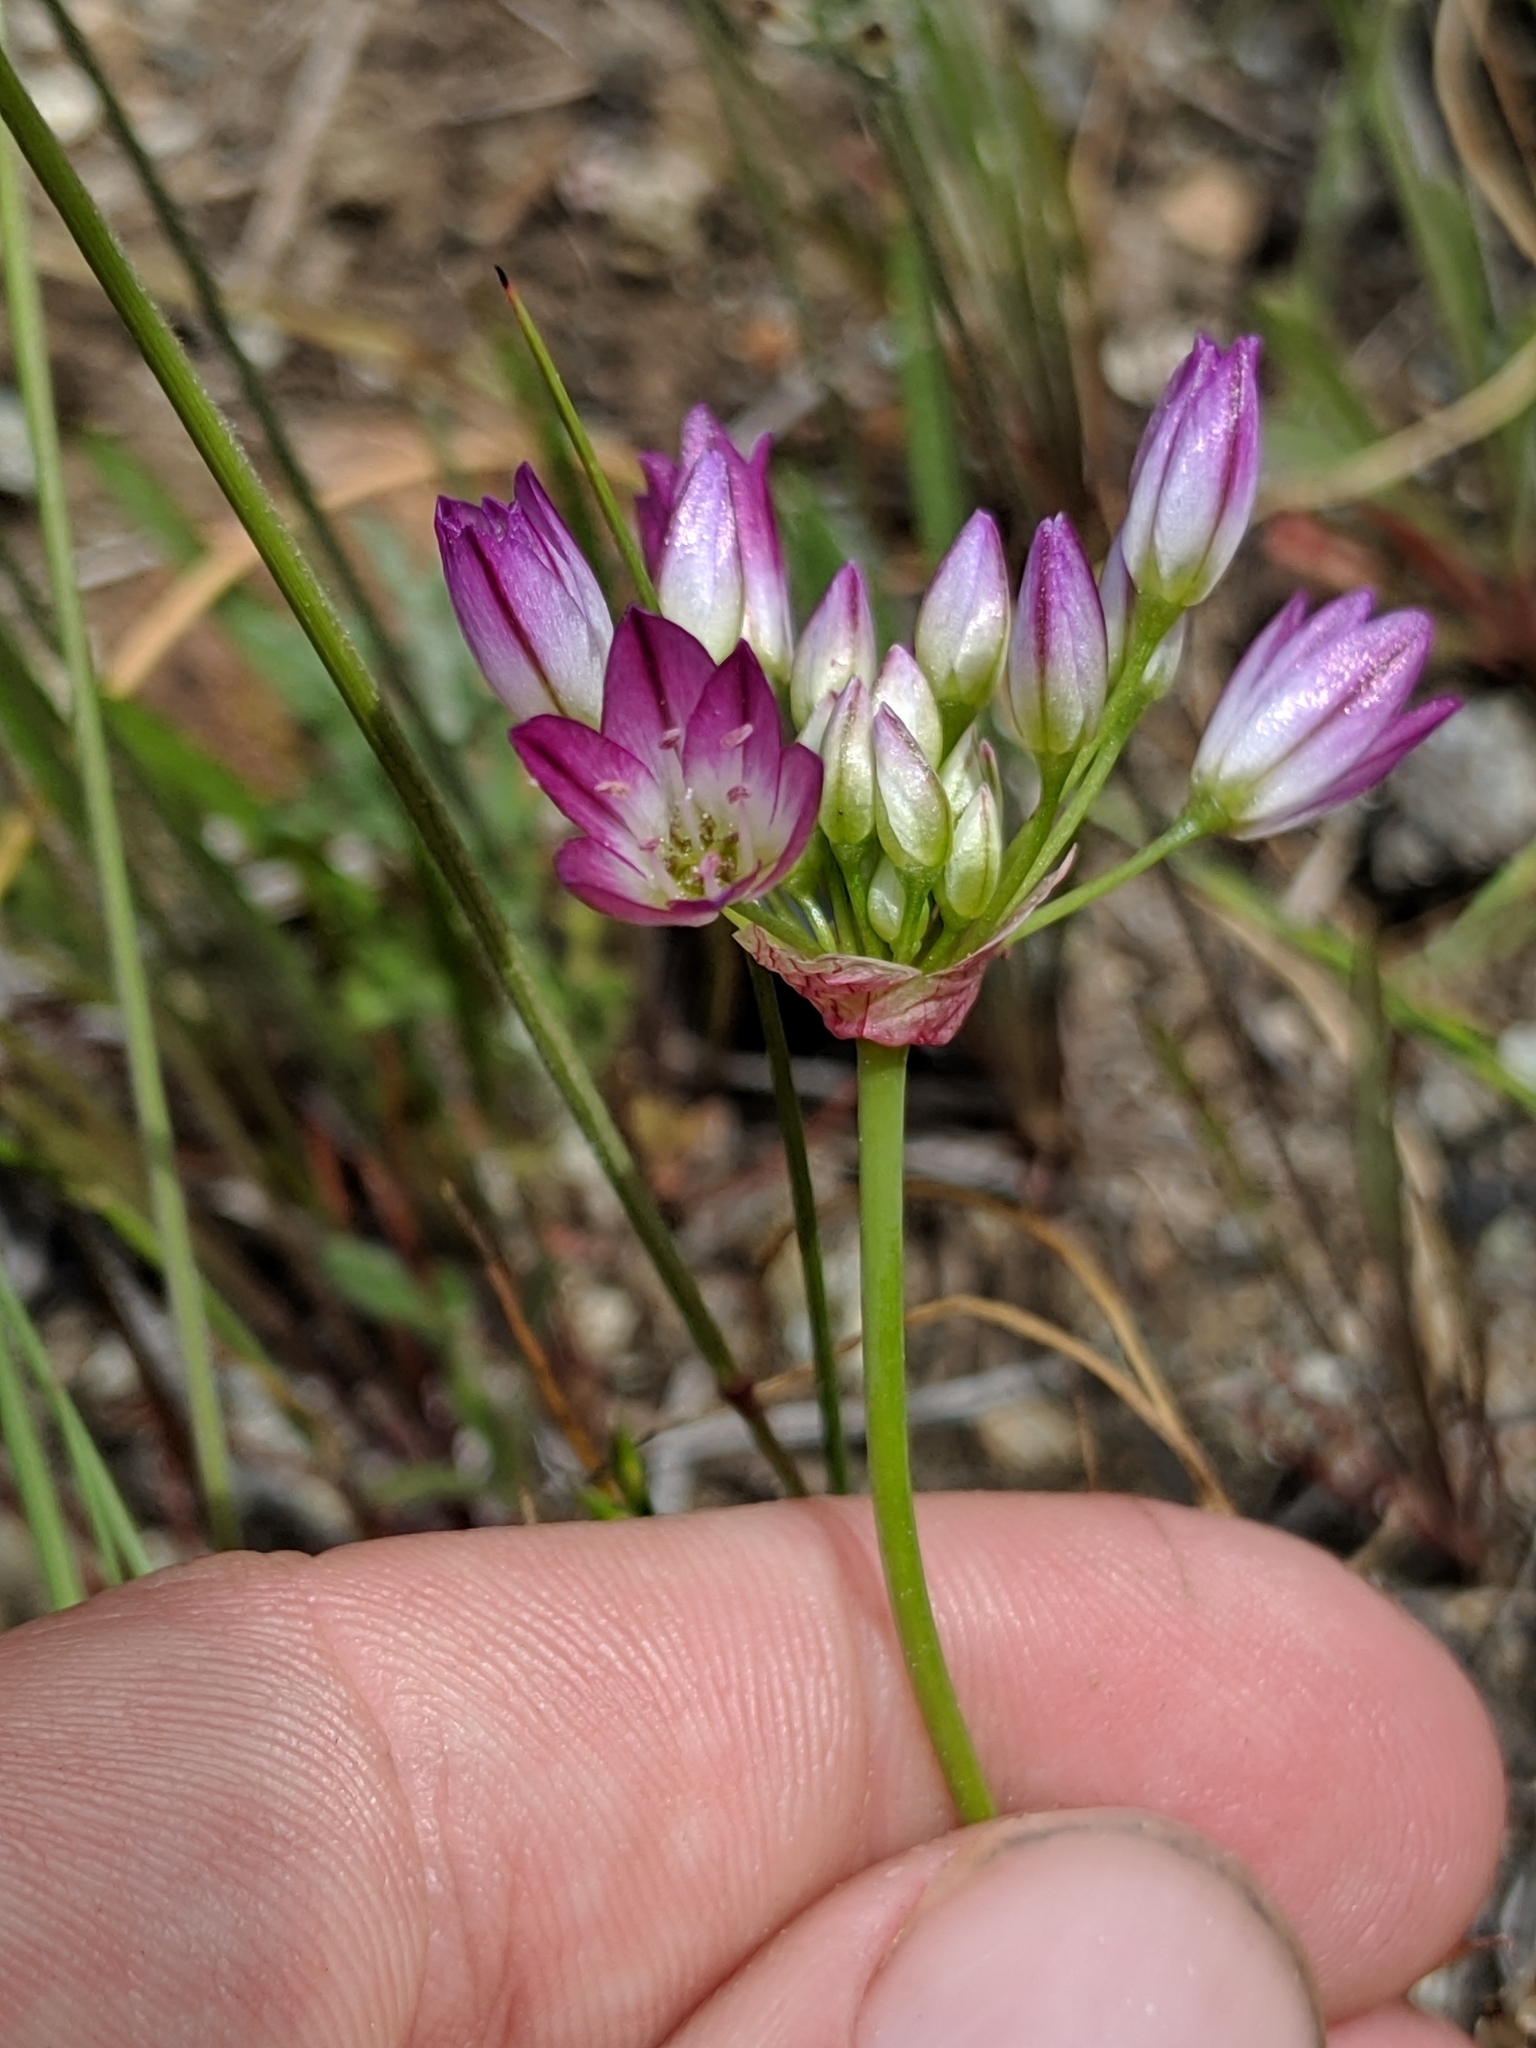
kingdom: Plantae
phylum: Tracheophyta
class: Liliopsida
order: Asparagales
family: Amaryllidaceae
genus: Allium
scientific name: Allium diabolense
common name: Serpentine onion
